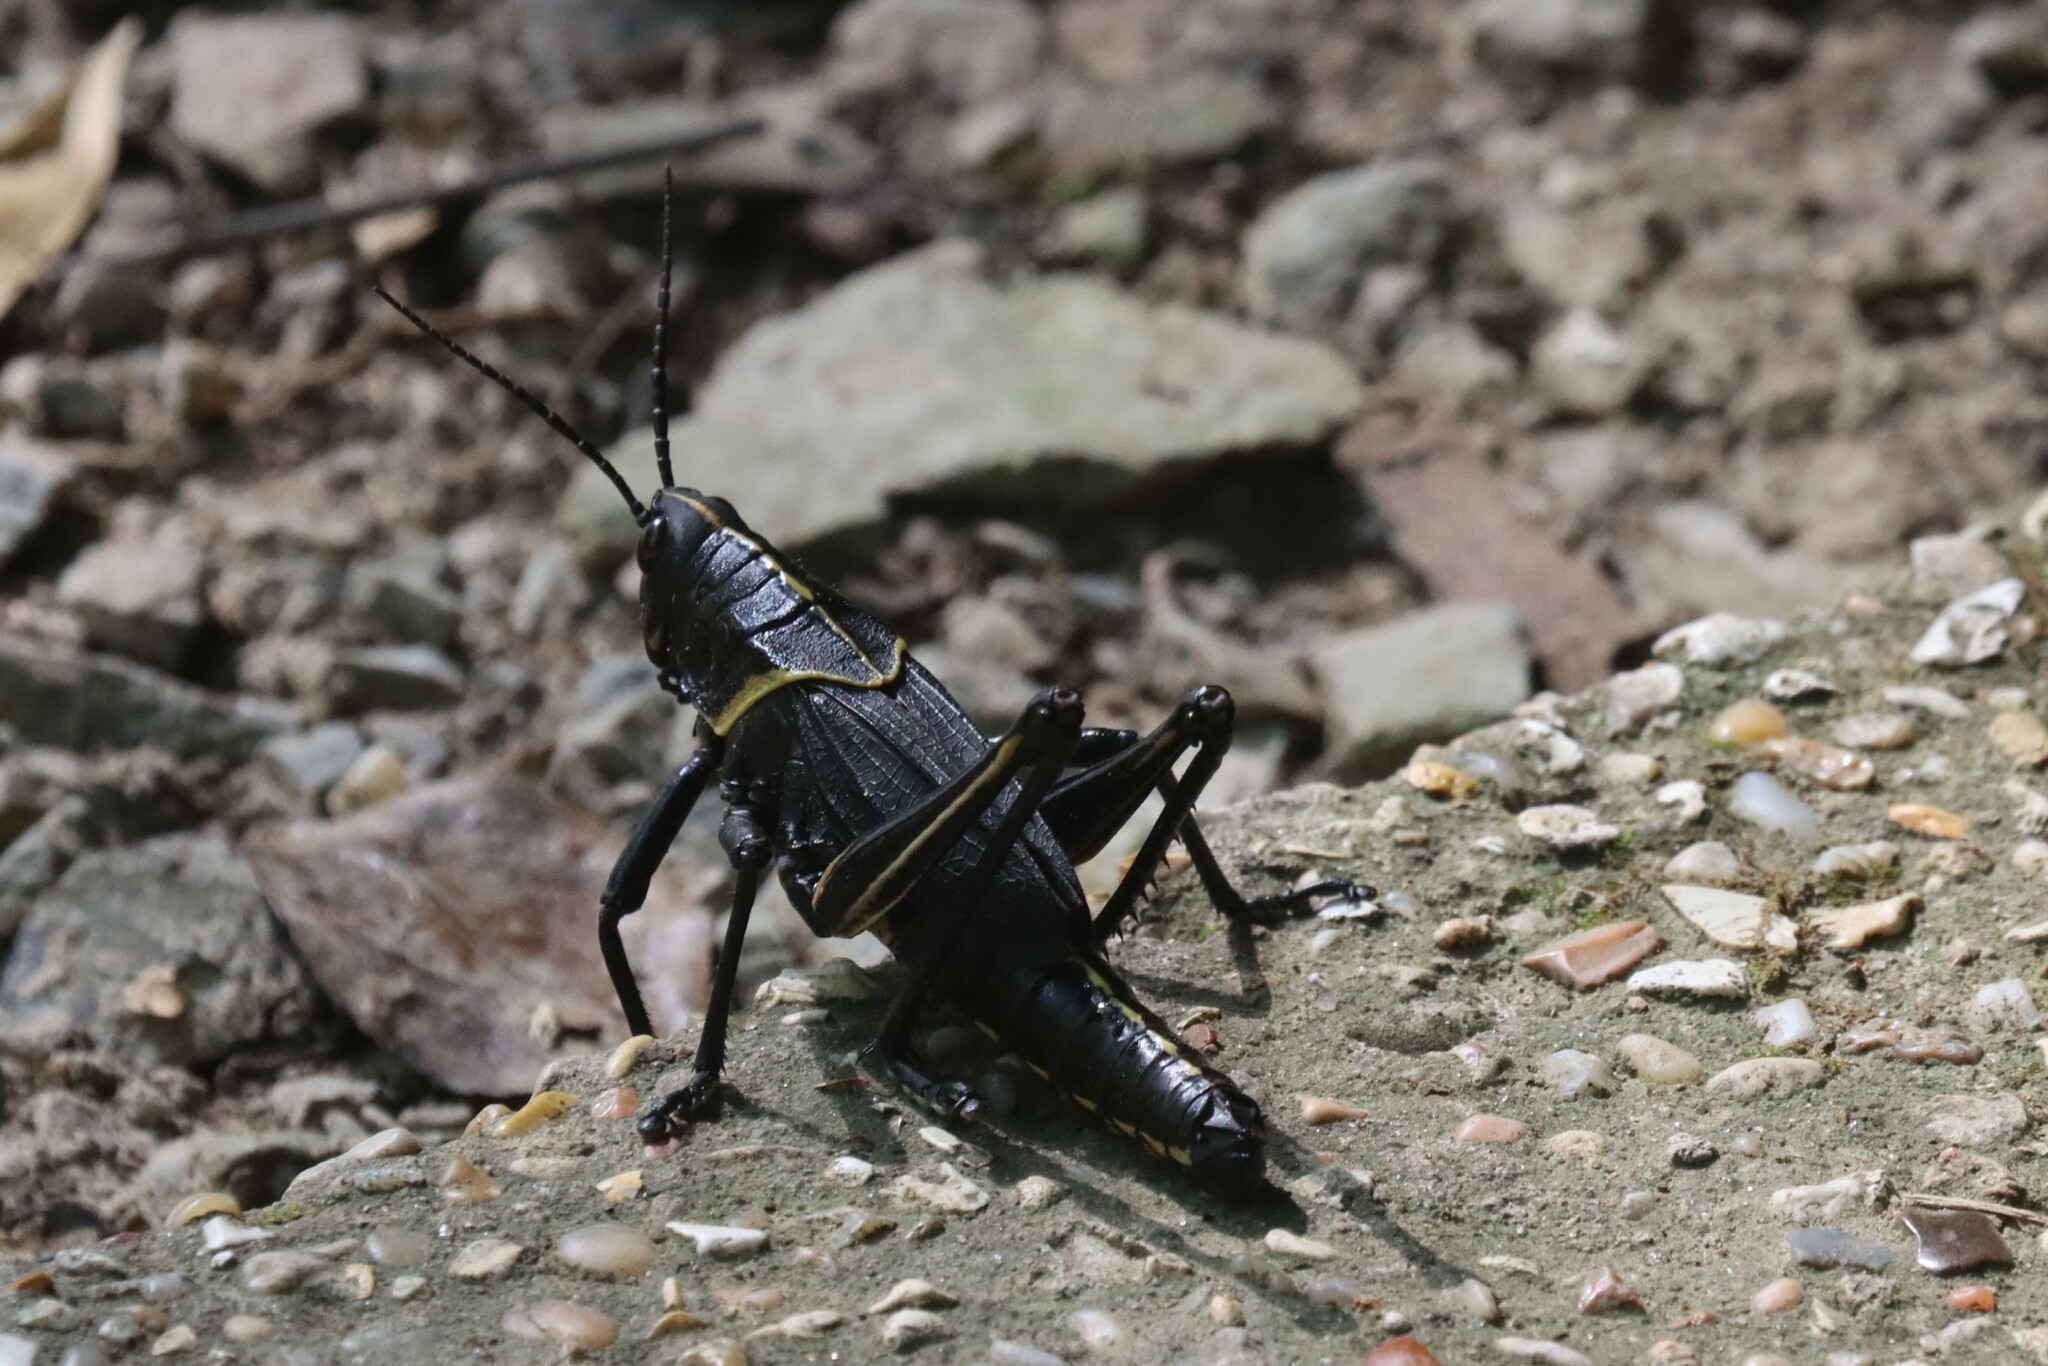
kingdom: Animalia
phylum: Arthropoda
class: Insecta
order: Orthoptera
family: Romaleidae
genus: Romalea
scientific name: Romalea microptera
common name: Eastern lubber grasshopper
